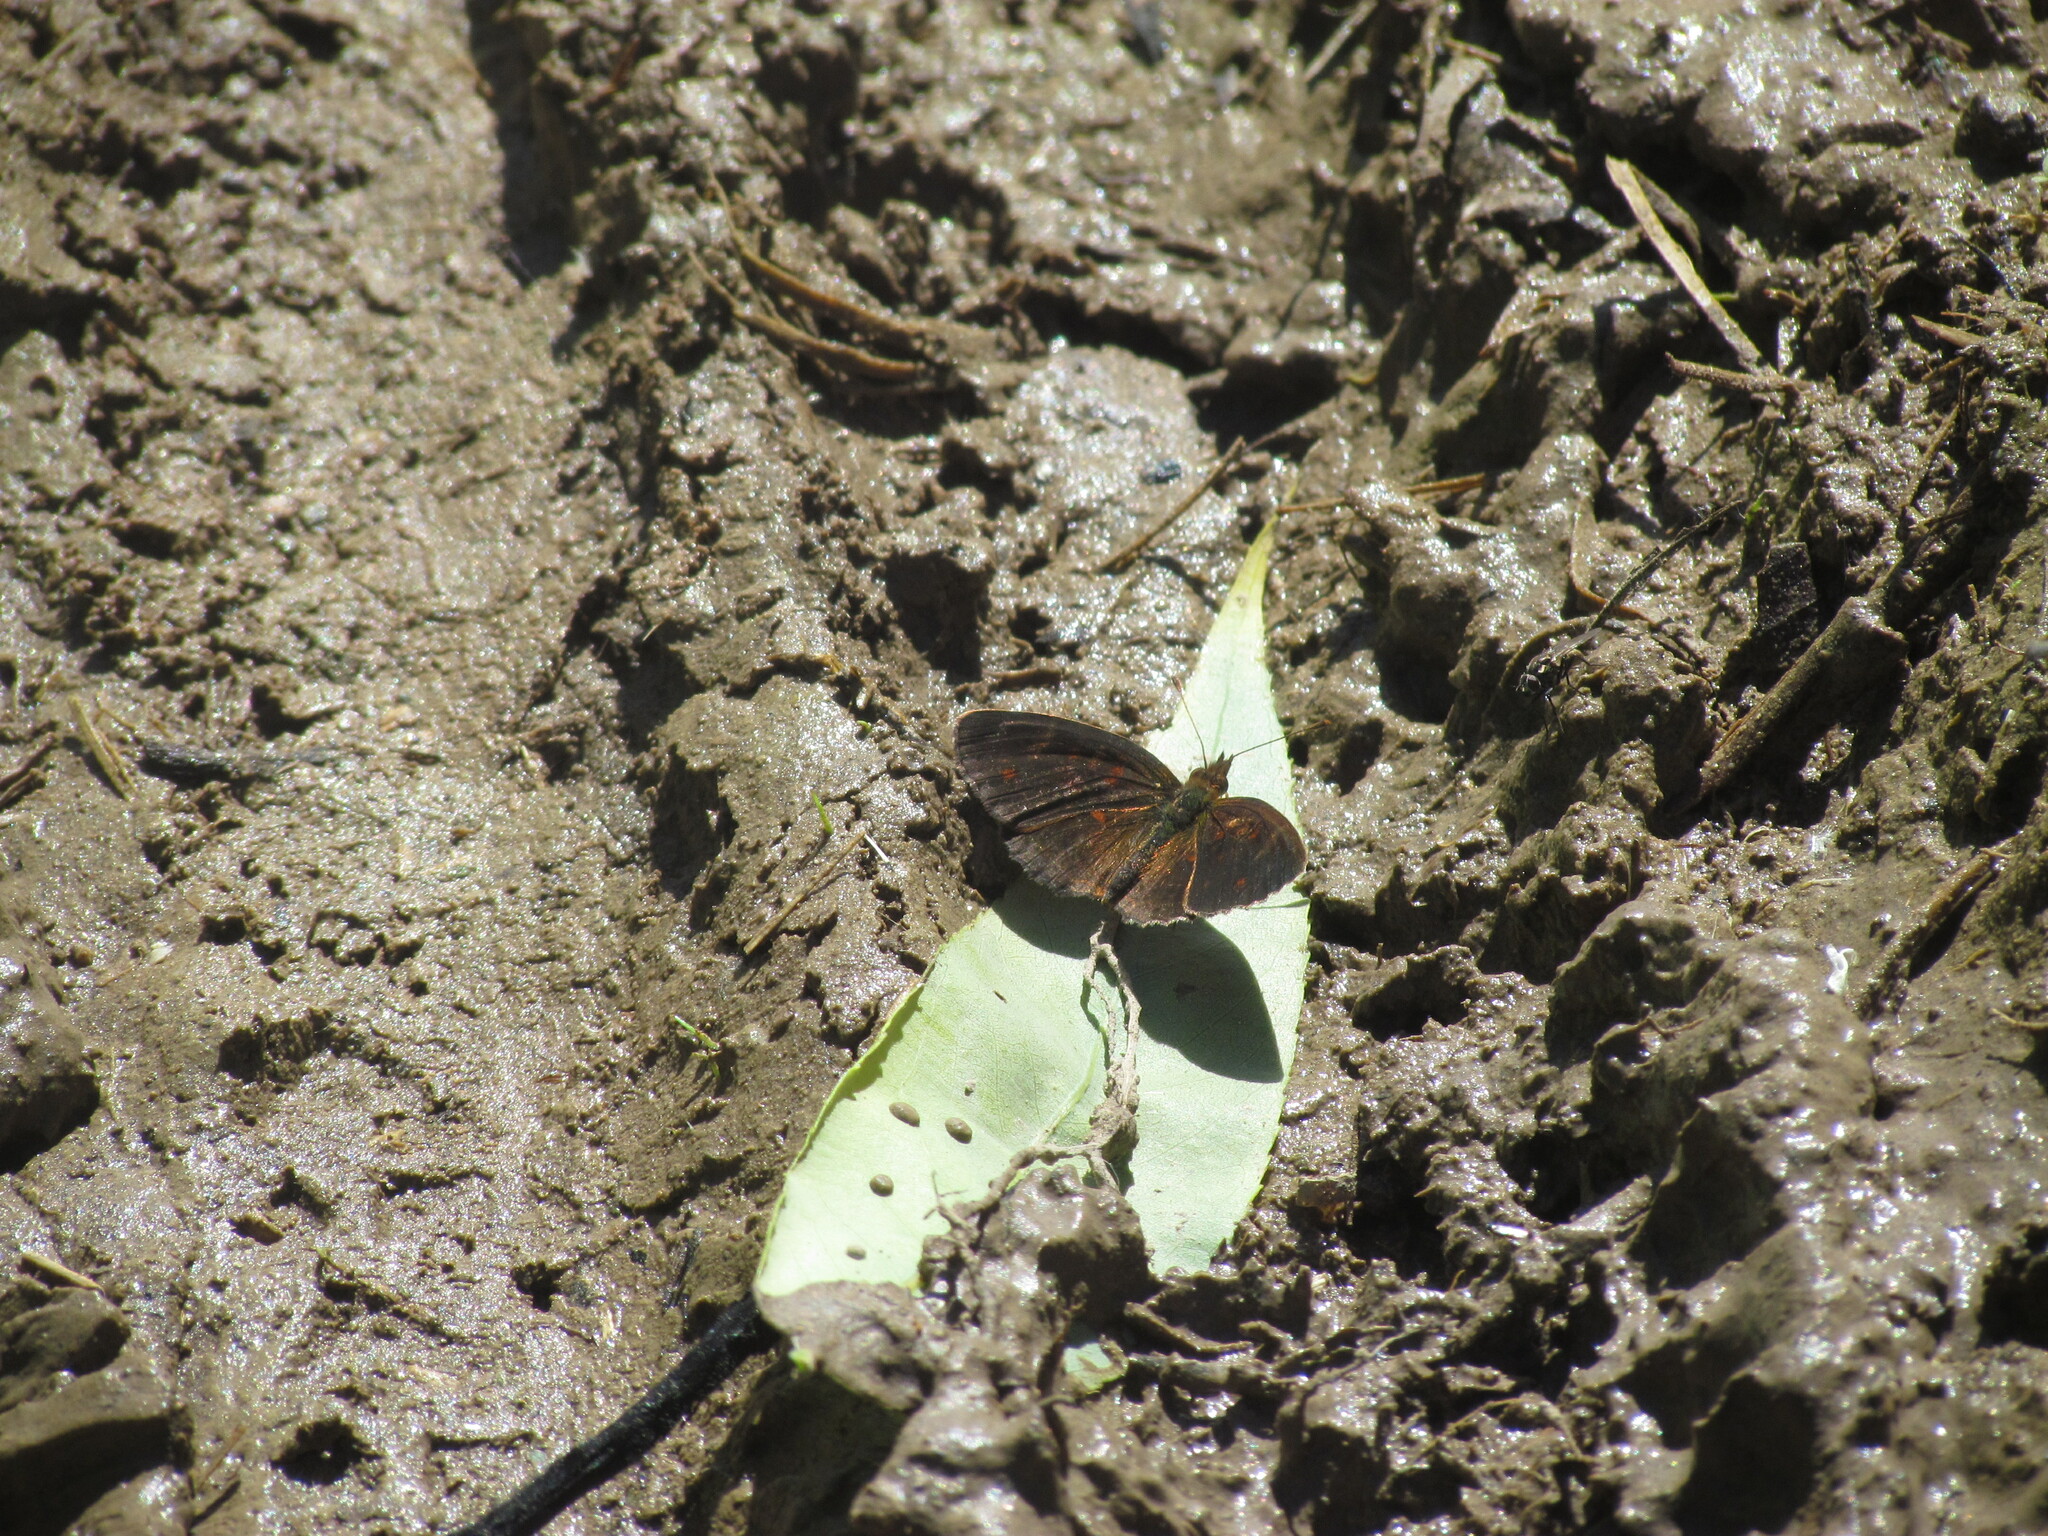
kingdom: Animalia
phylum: Arthropoda
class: Insecta
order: Lepidoptera
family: Nymphalidae
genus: Ortilia
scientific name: Ortilia velica
